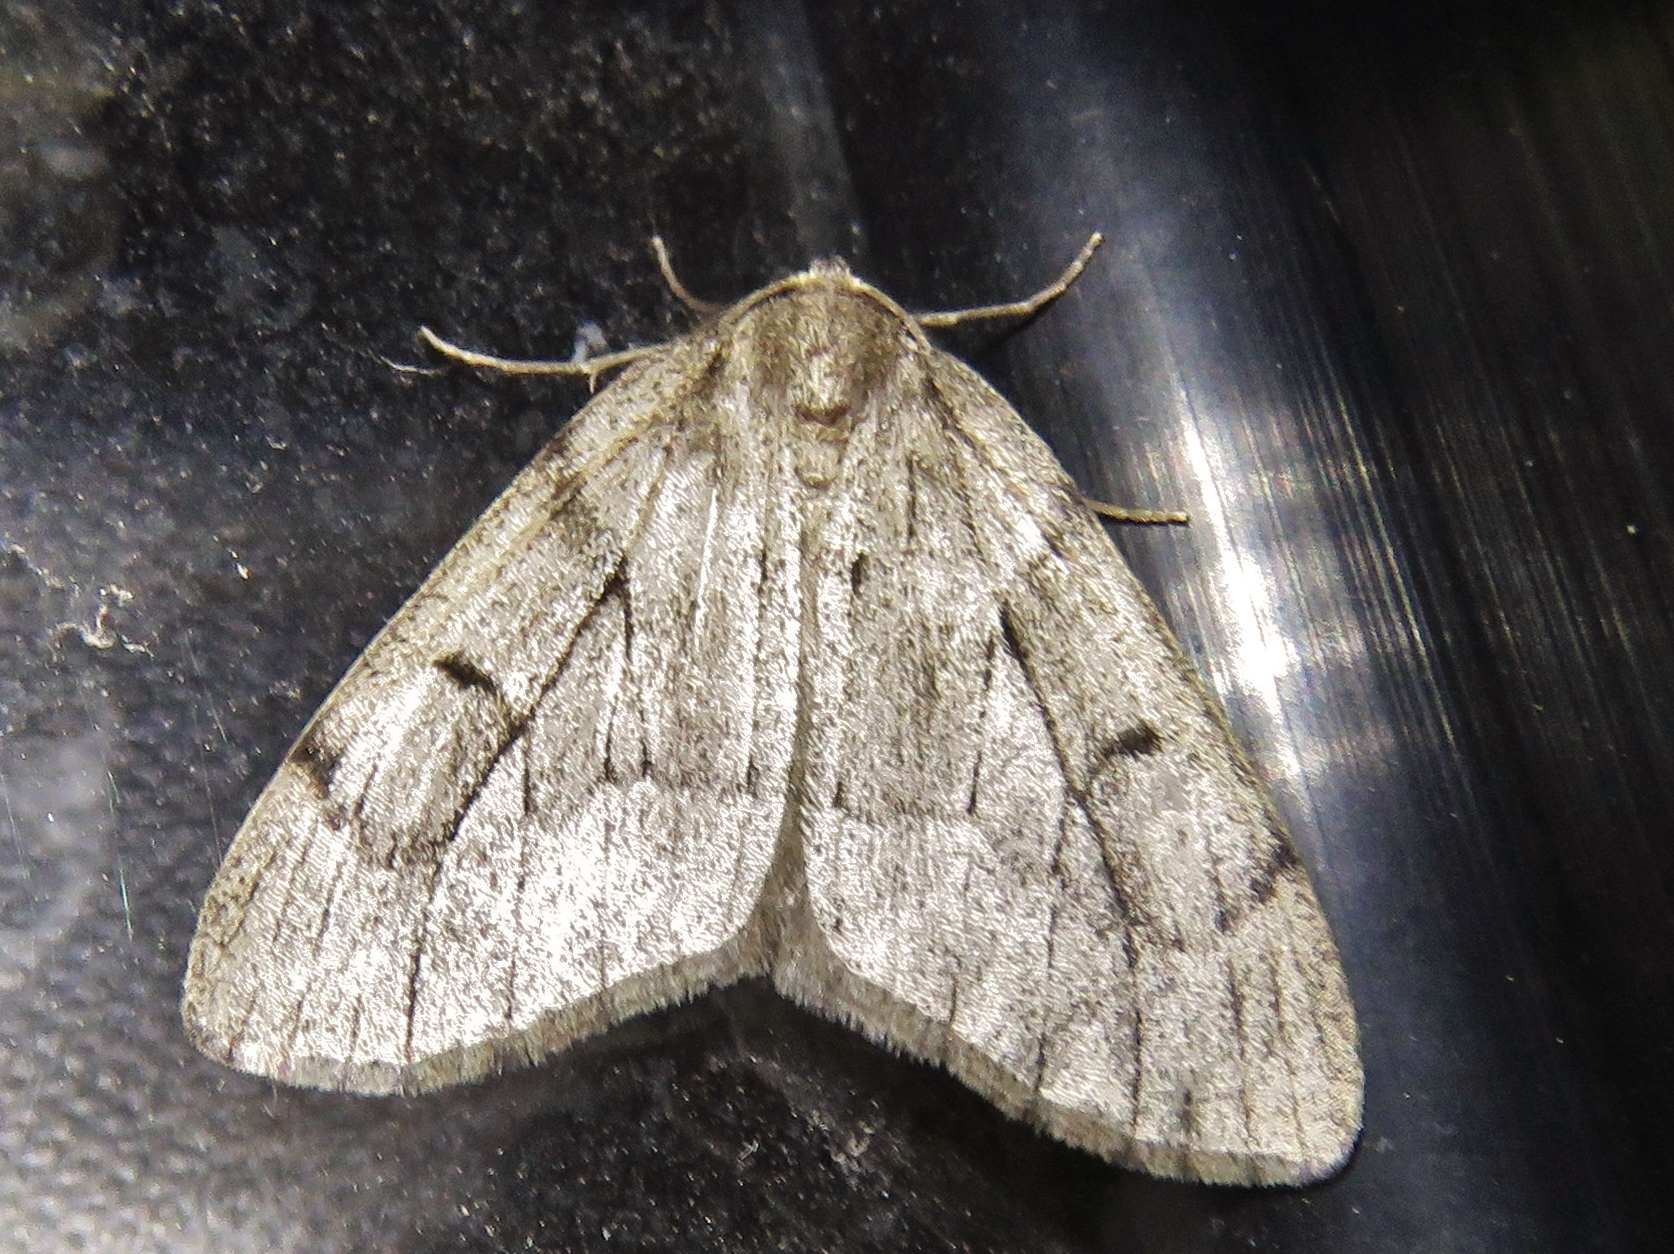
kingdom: Animalia
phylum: Arthropoda
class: Insecta
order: Lepidoptera
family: Geometridae
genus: Nepytia
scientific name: Nepytia swetti
